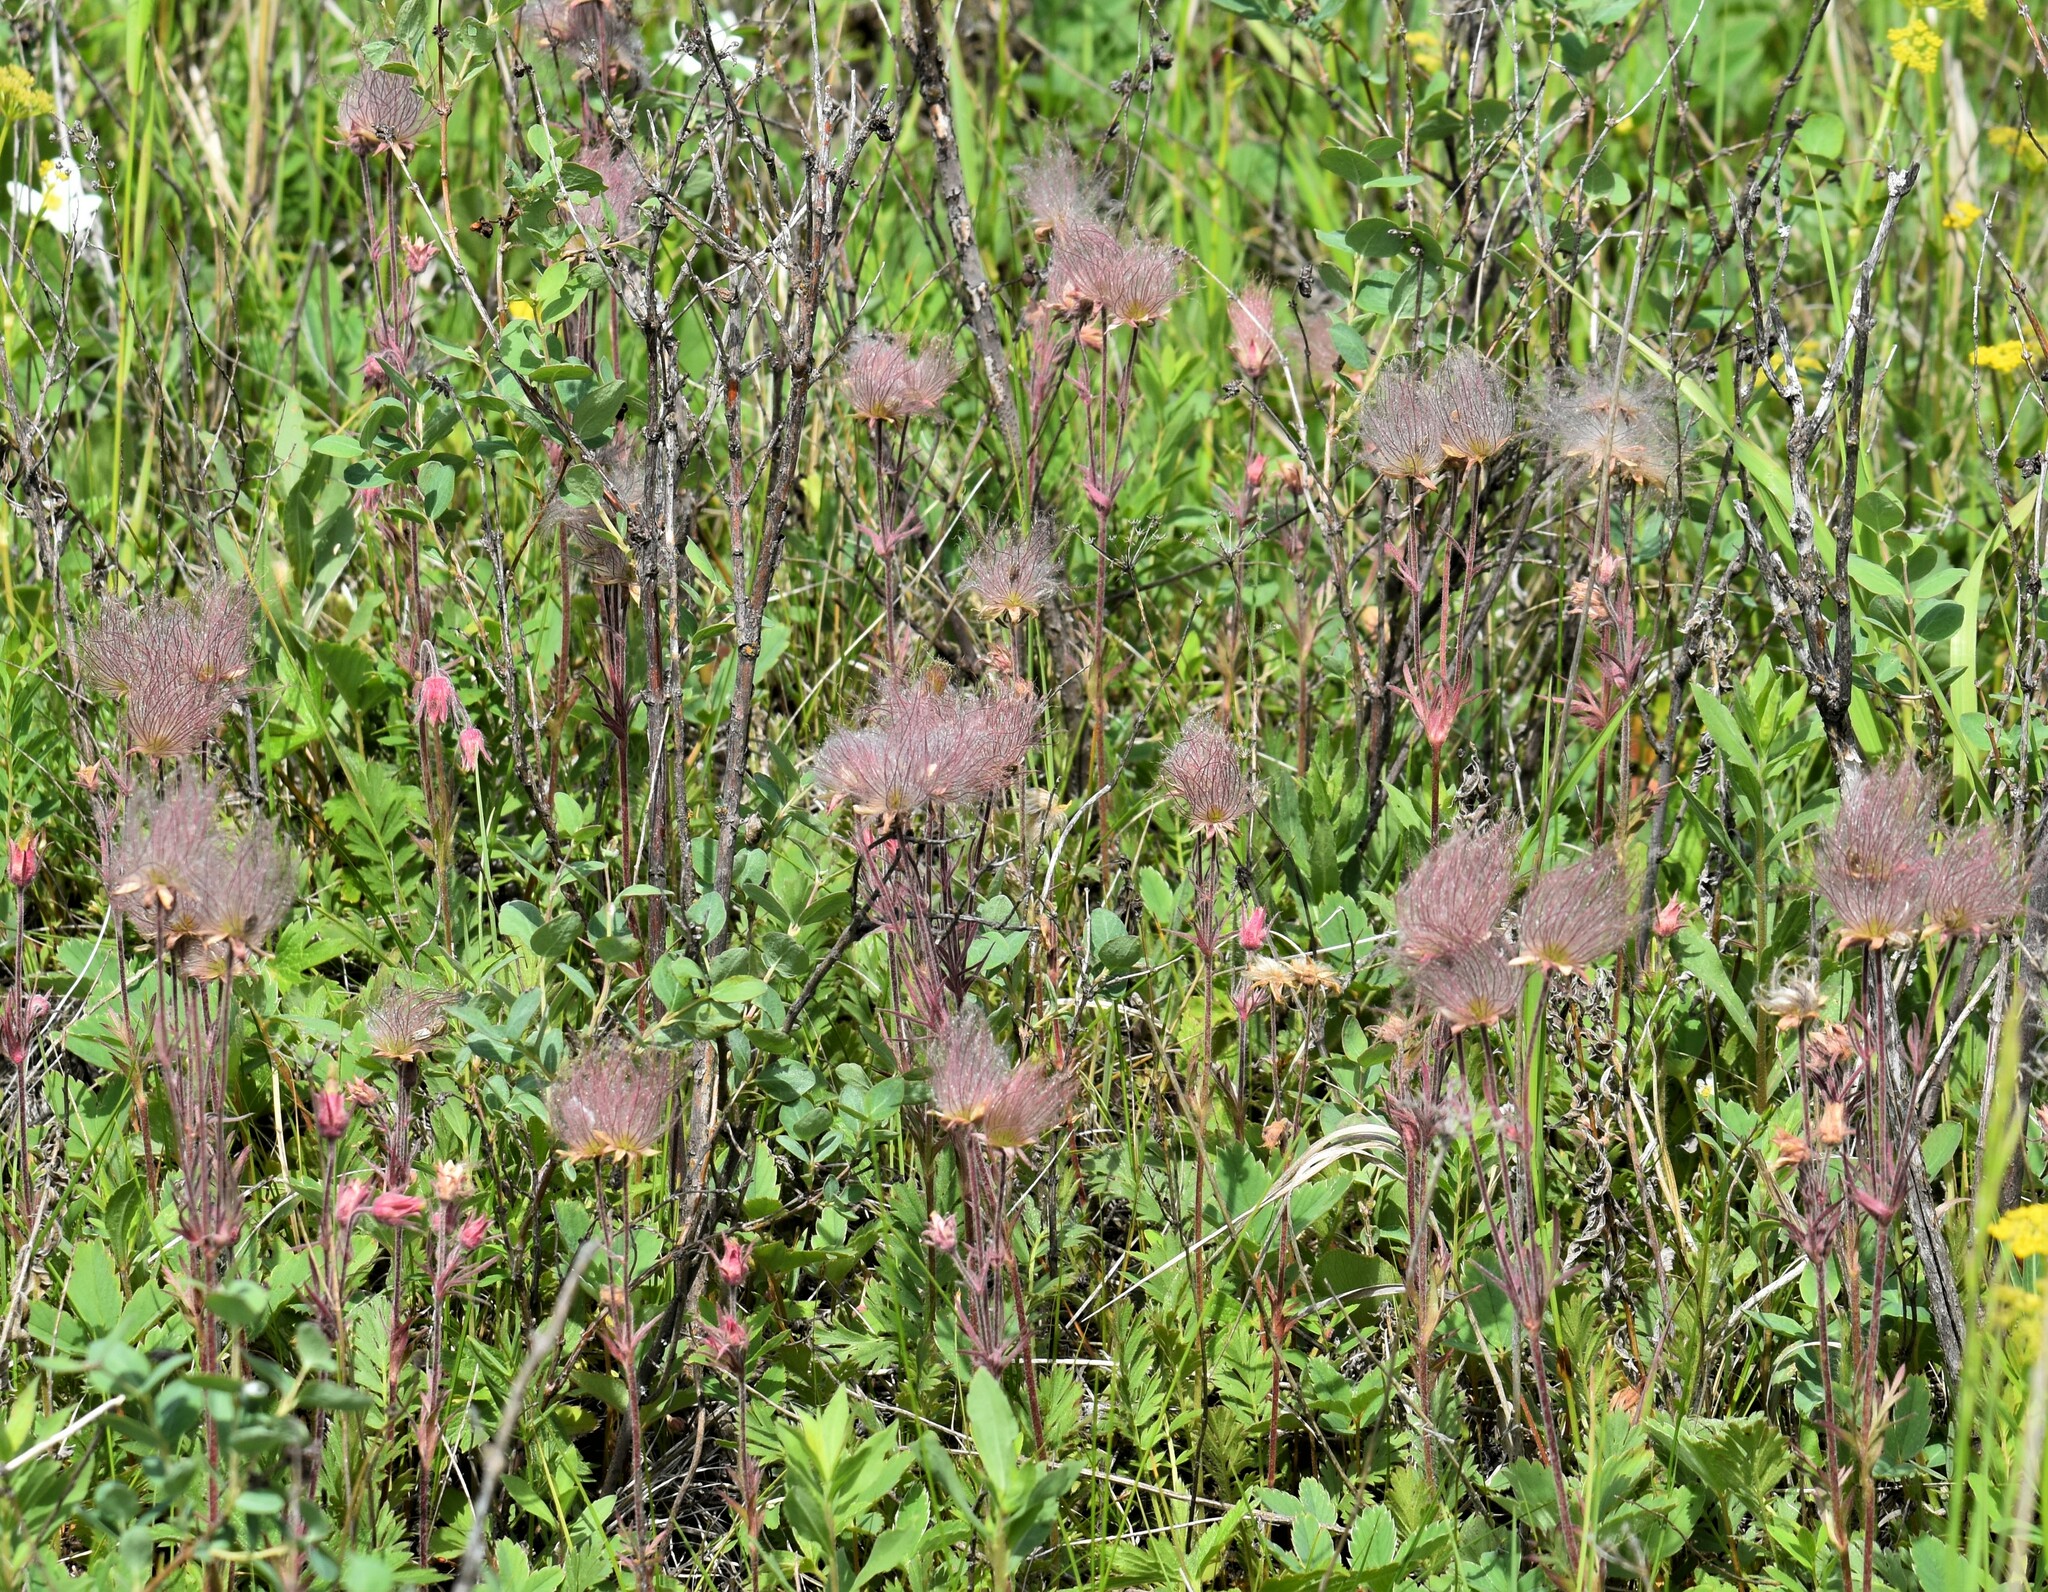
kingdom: Plantae
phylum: Tracheophyta
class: Magnoliopsida
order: Rosales
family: Rosaceae
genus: Geum
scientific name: Geum triflorum
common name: Old man's whiskers
